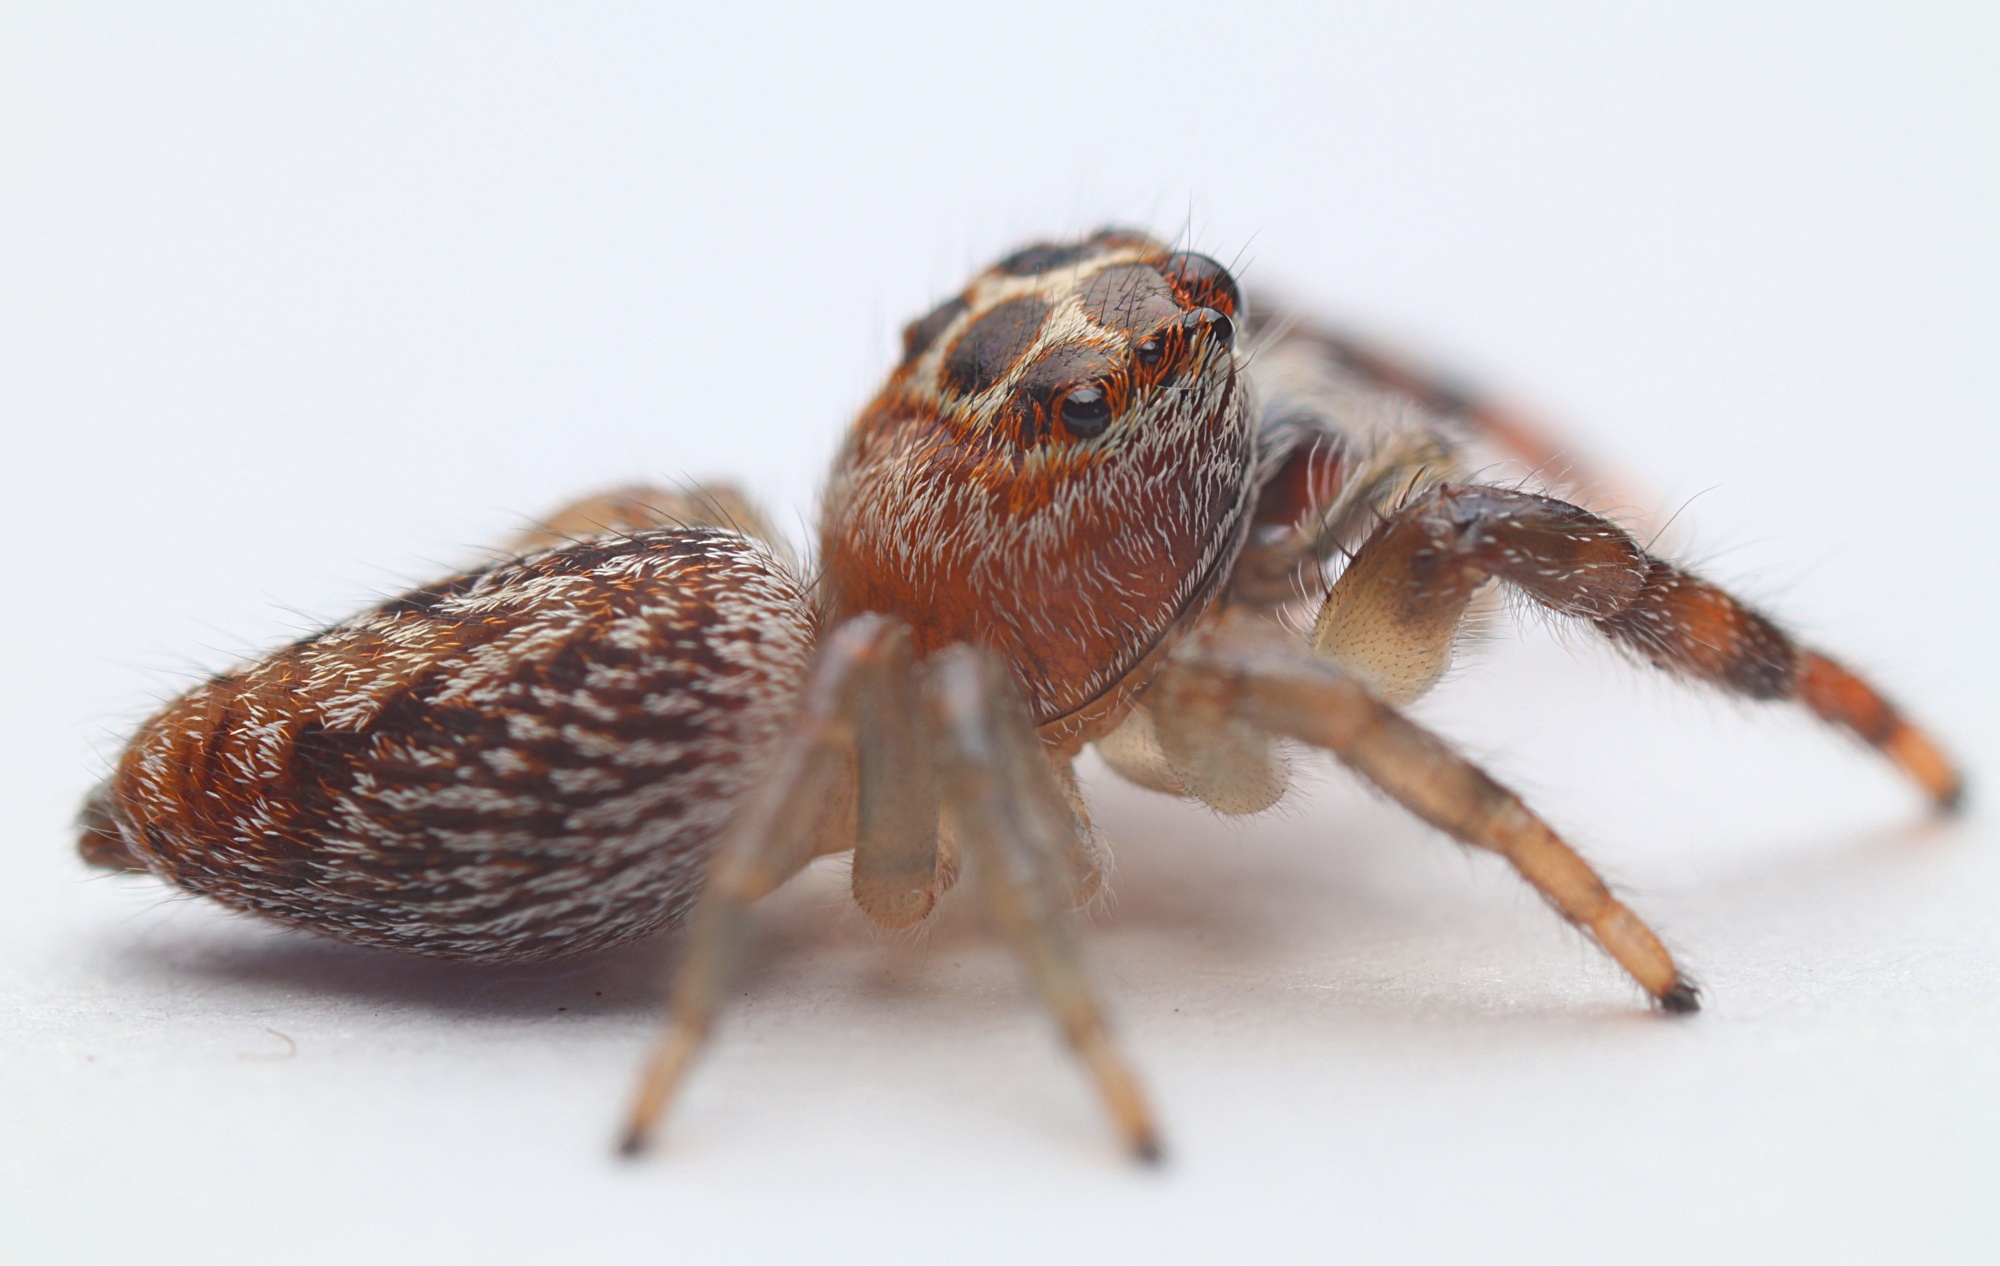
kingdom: Animalia
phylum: Arthropoda
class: Arachnida
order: Araneae
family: Salticidae
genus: Opisthoncus
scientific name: Opisthoncus polyphemus
